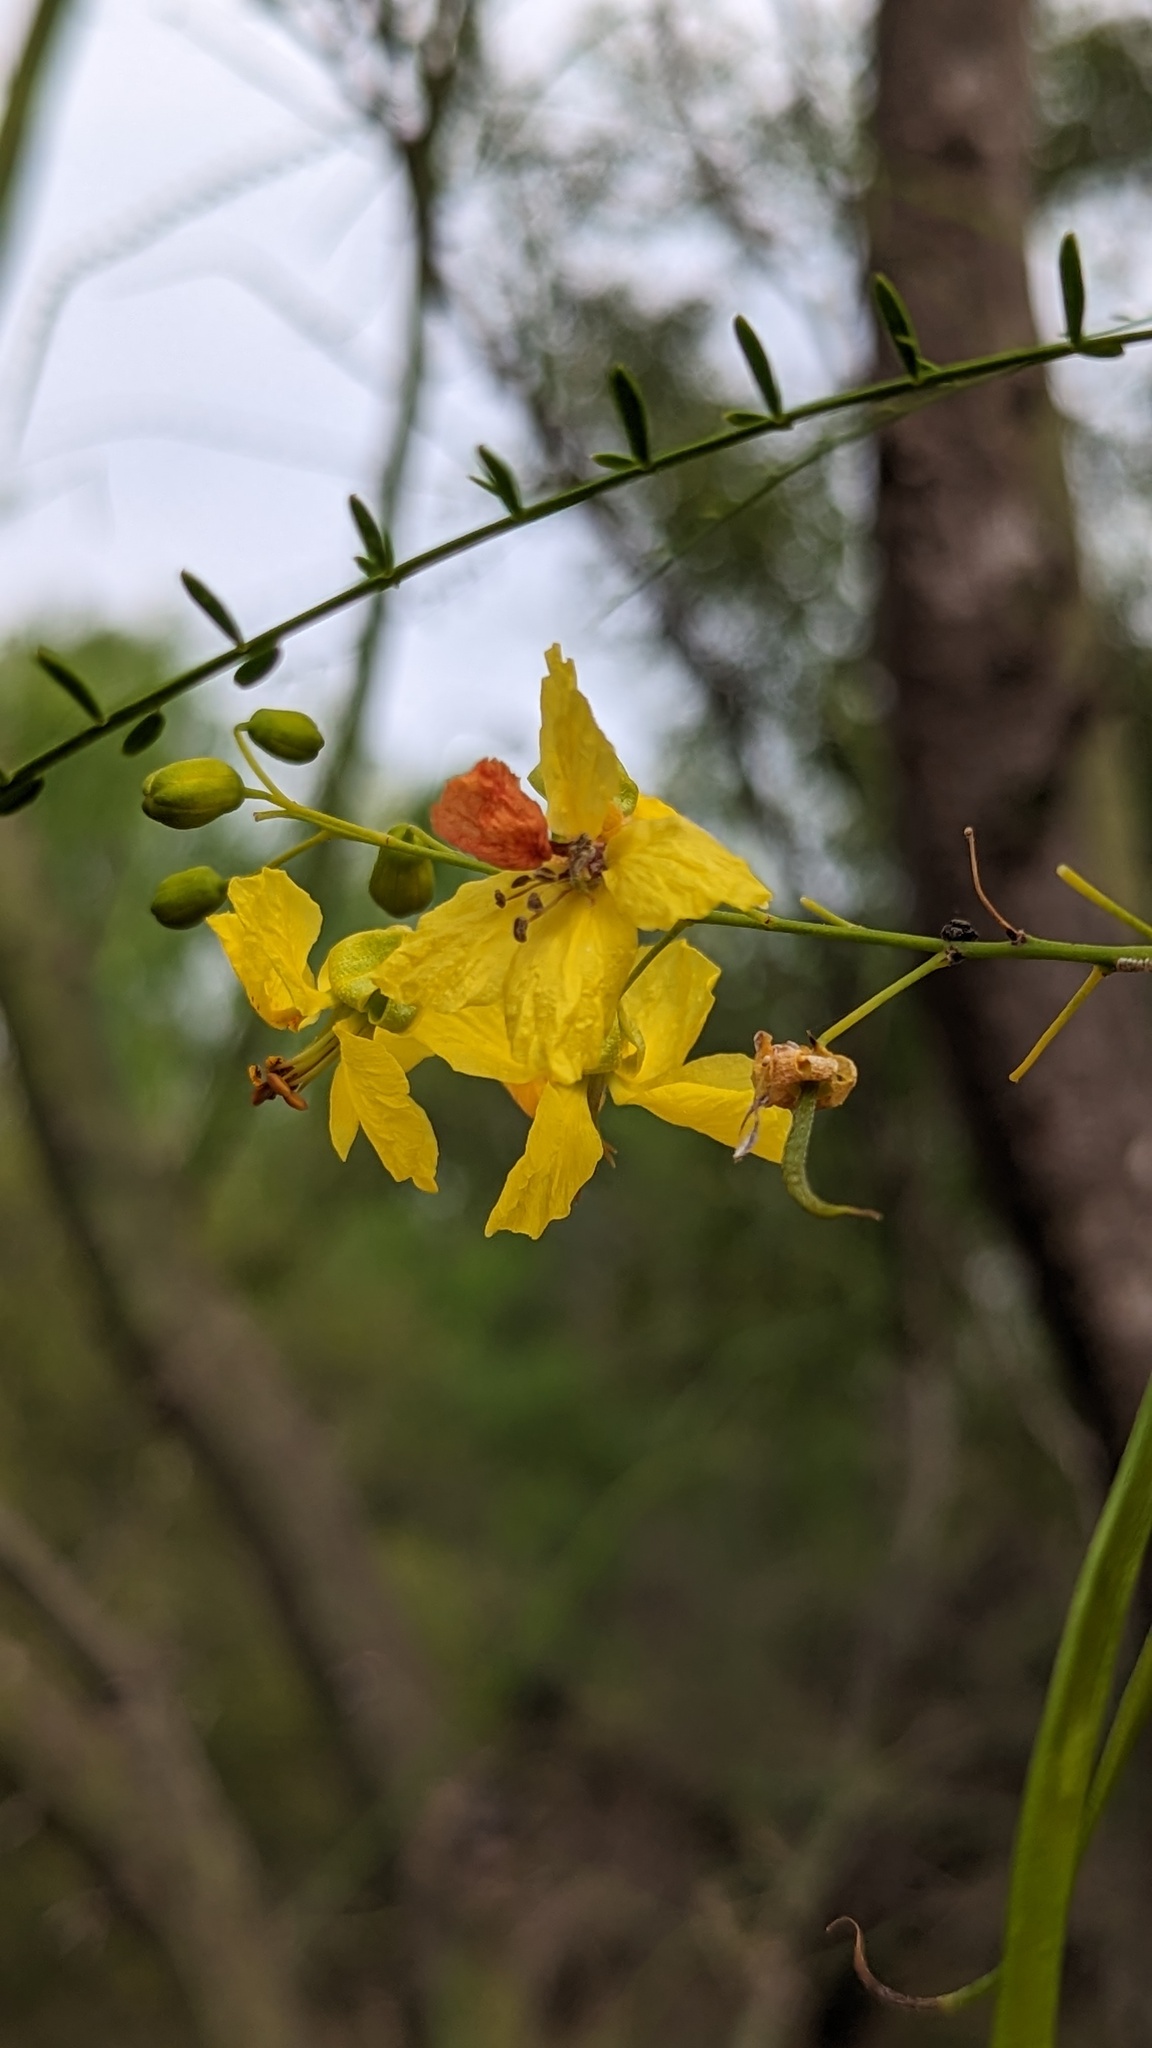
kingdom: Plantae
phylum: Tracheophyta
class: Magnoliopsida
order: Fabales
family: Fabaceae
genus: Parkinsonia
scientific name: Parkinsonia aculeata
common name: Jerusalem thorn
